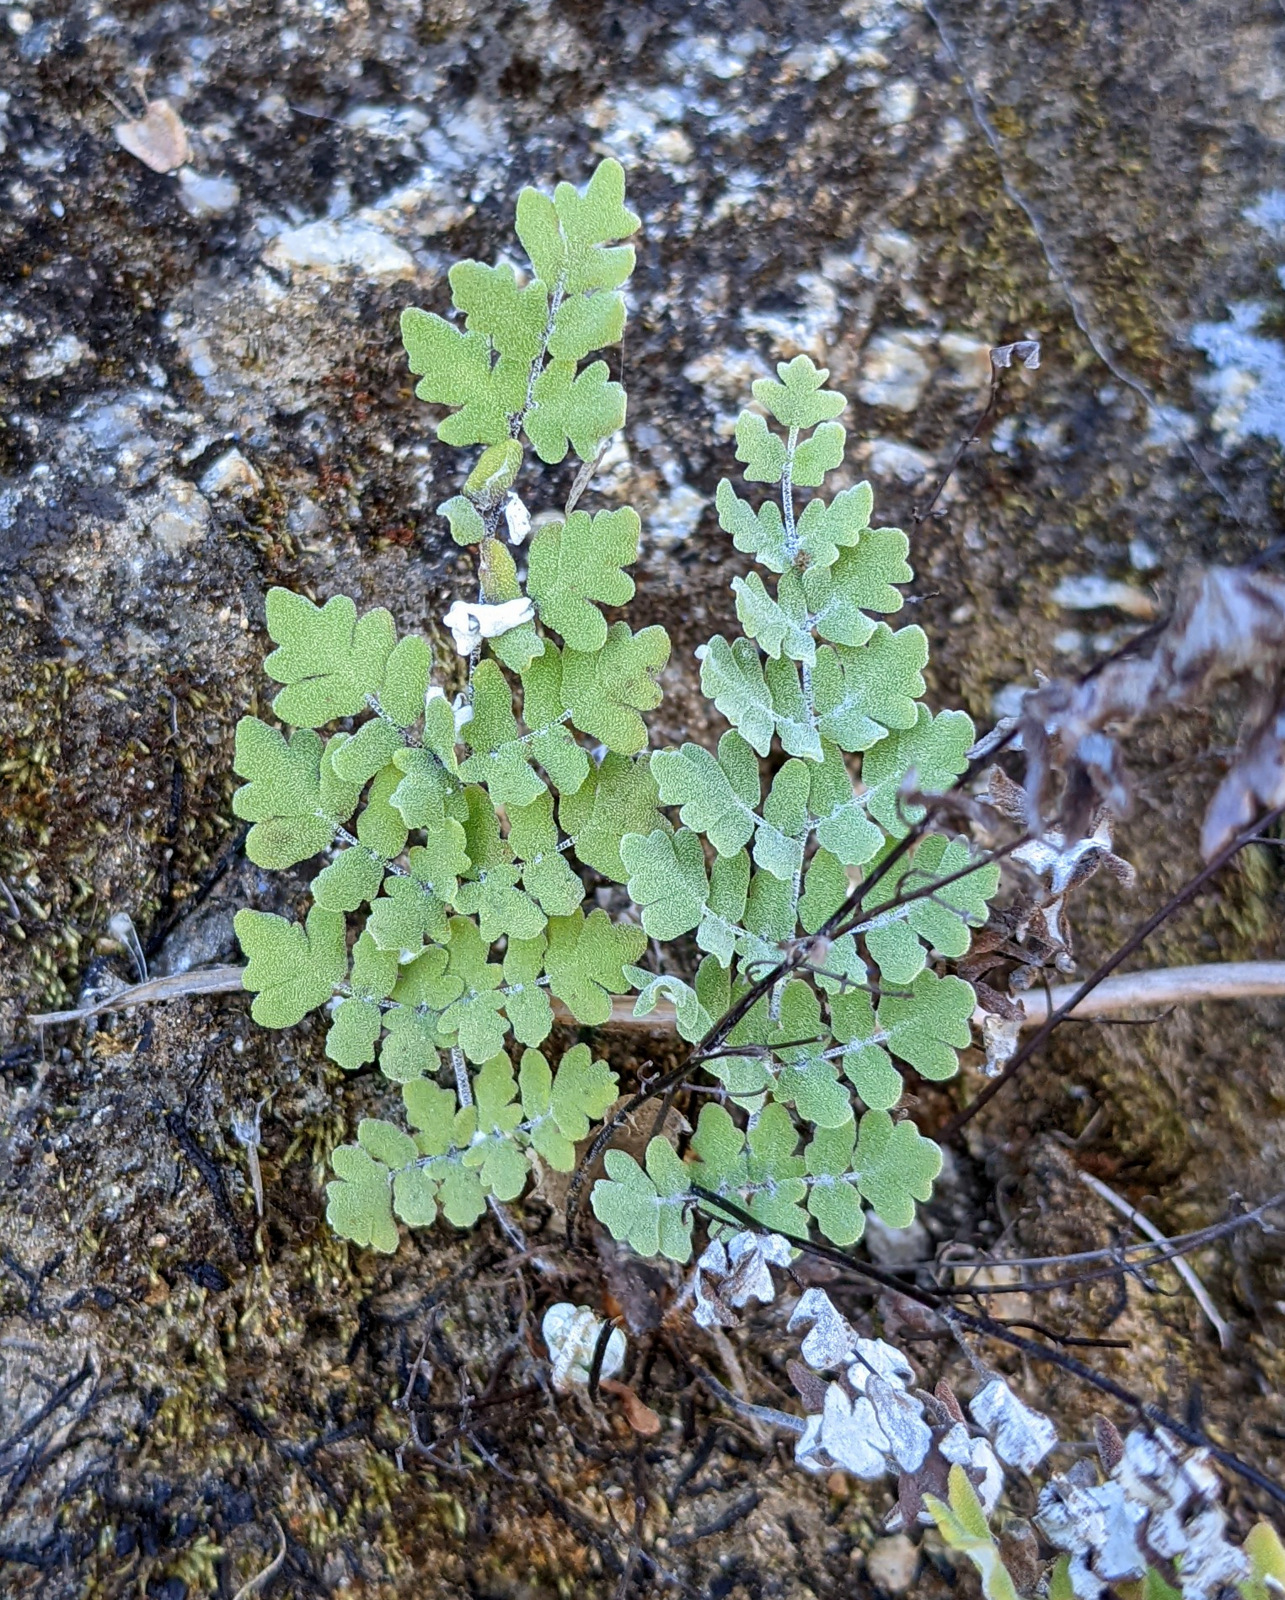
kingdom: Plantae
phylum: Tracheophyta
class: Polypodiopsida
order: Polypodiales
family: Pteridaceae
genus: Argyrochosma
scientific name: Argyrochosma peninsularis
